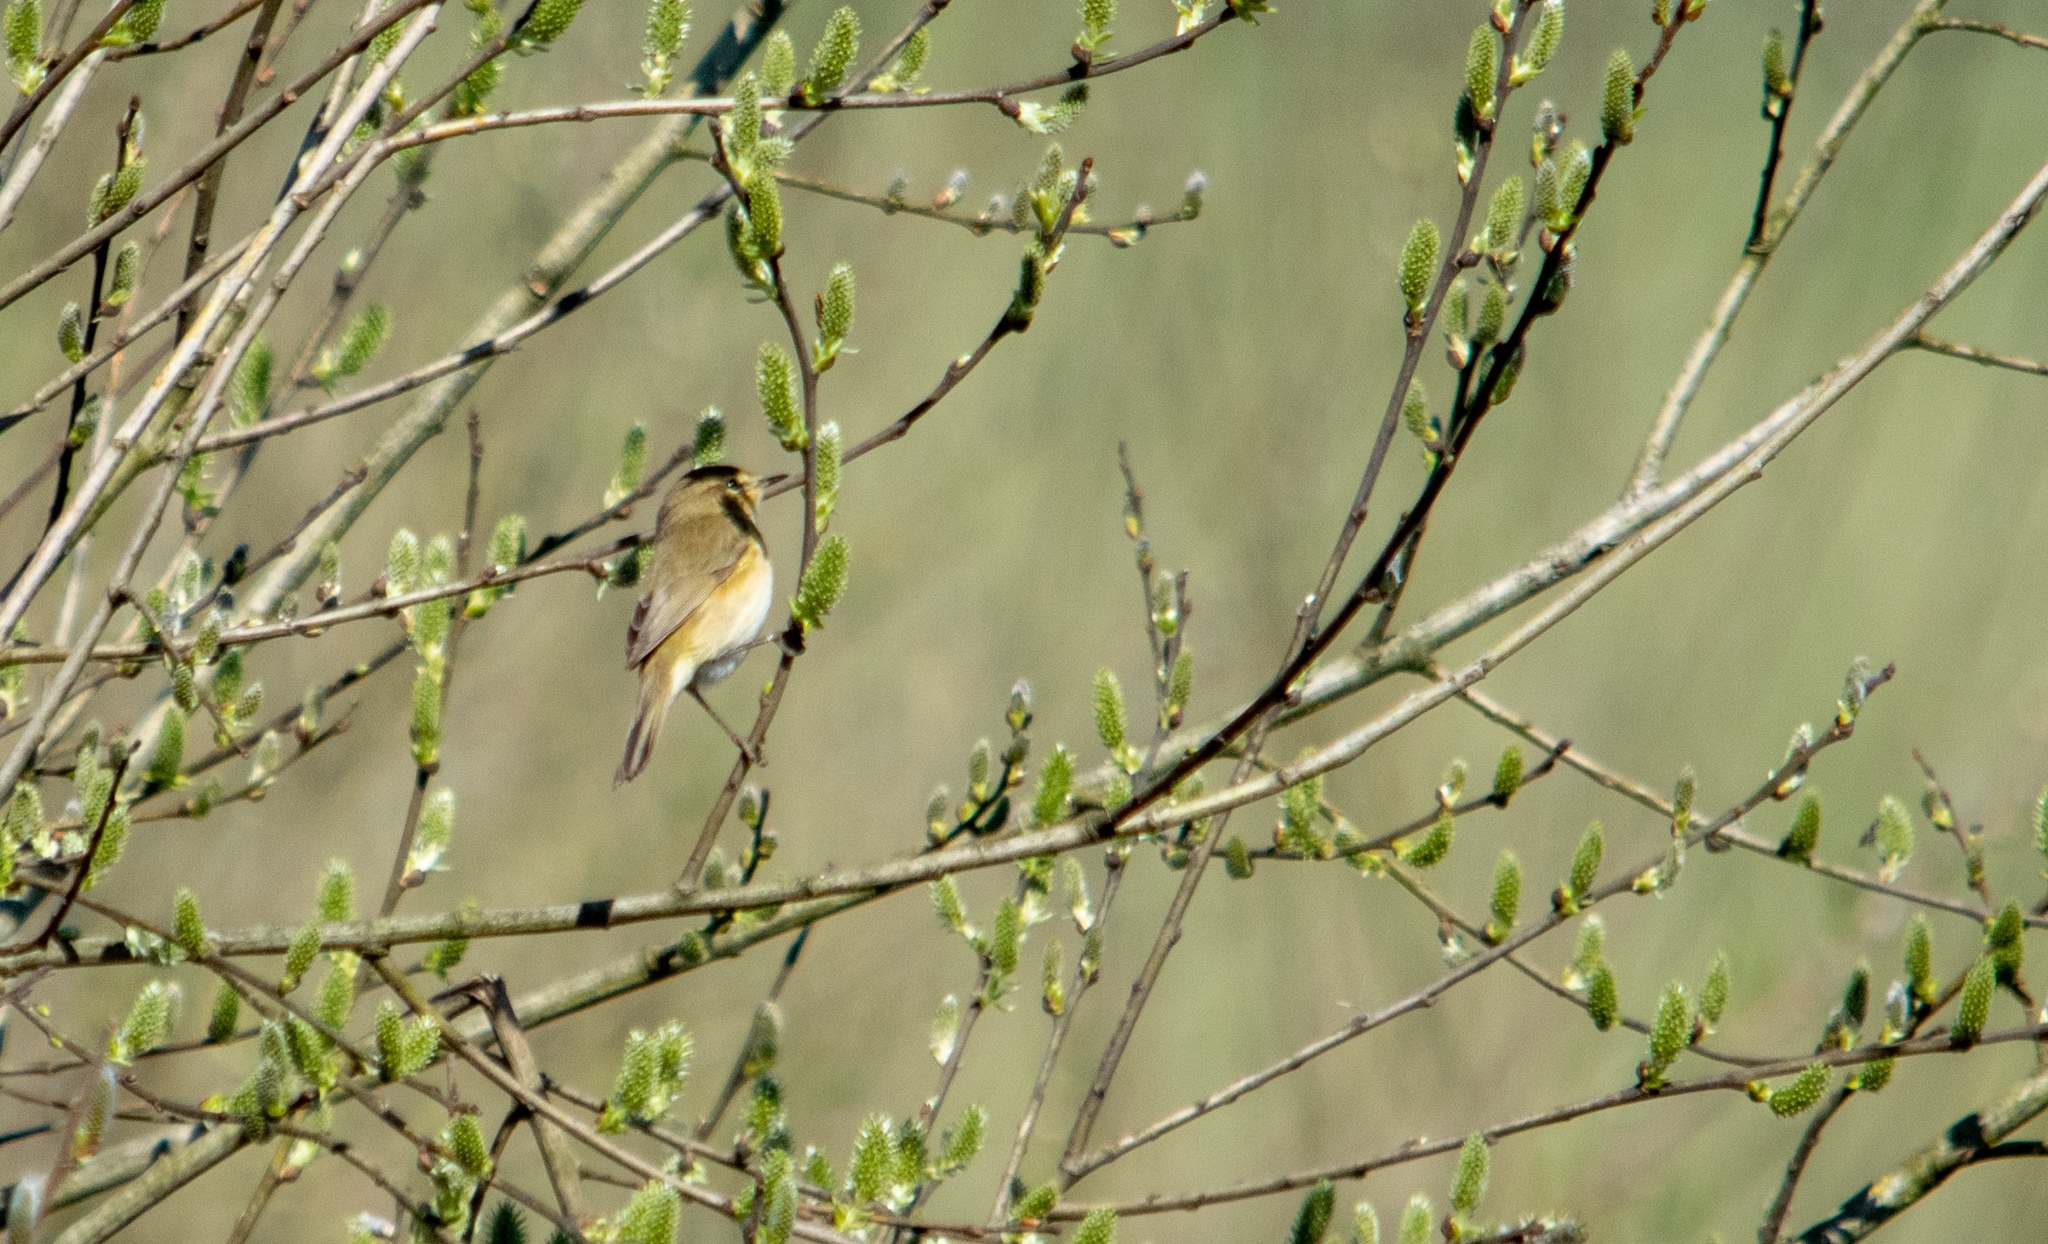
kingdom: Animalia
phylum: Chordata
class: Aves
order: Passeriformes
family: Phylloscopidae
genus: Phylloscopus
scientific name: Phylloscopus collybita
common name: Common chiffchaff
